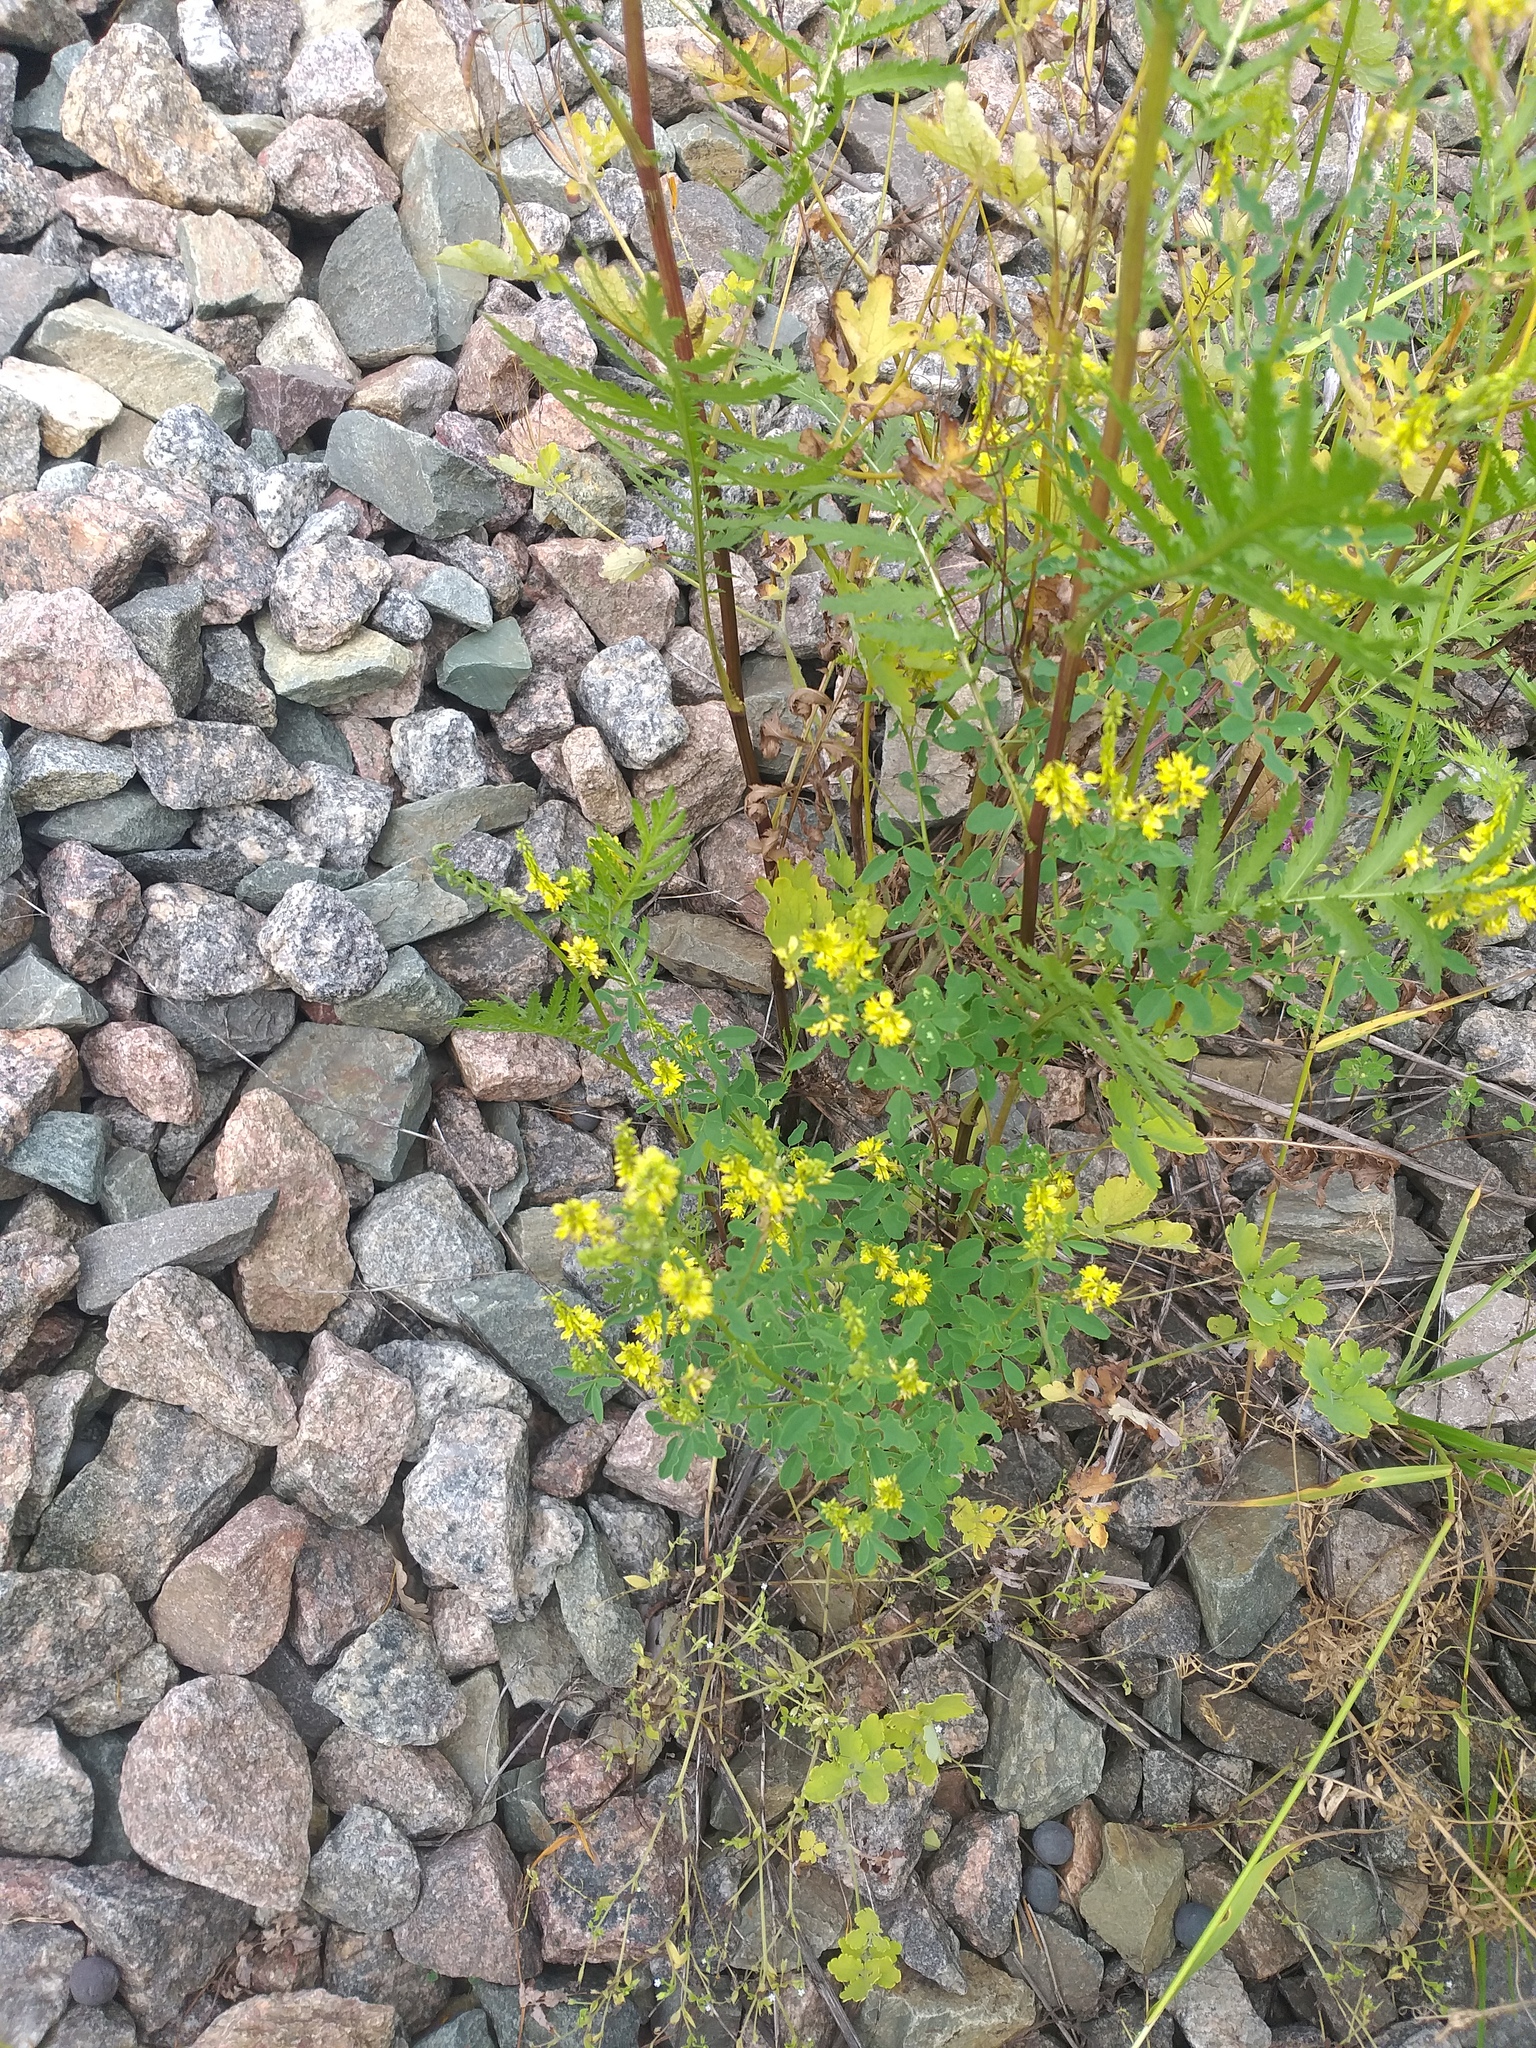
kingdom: Plantae
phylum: Tracheophyta
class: Magnoliopsida
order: Fabales
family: Fabaceae
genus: Melilotus
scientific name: Melilotus officinalis
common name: Sweetclover
